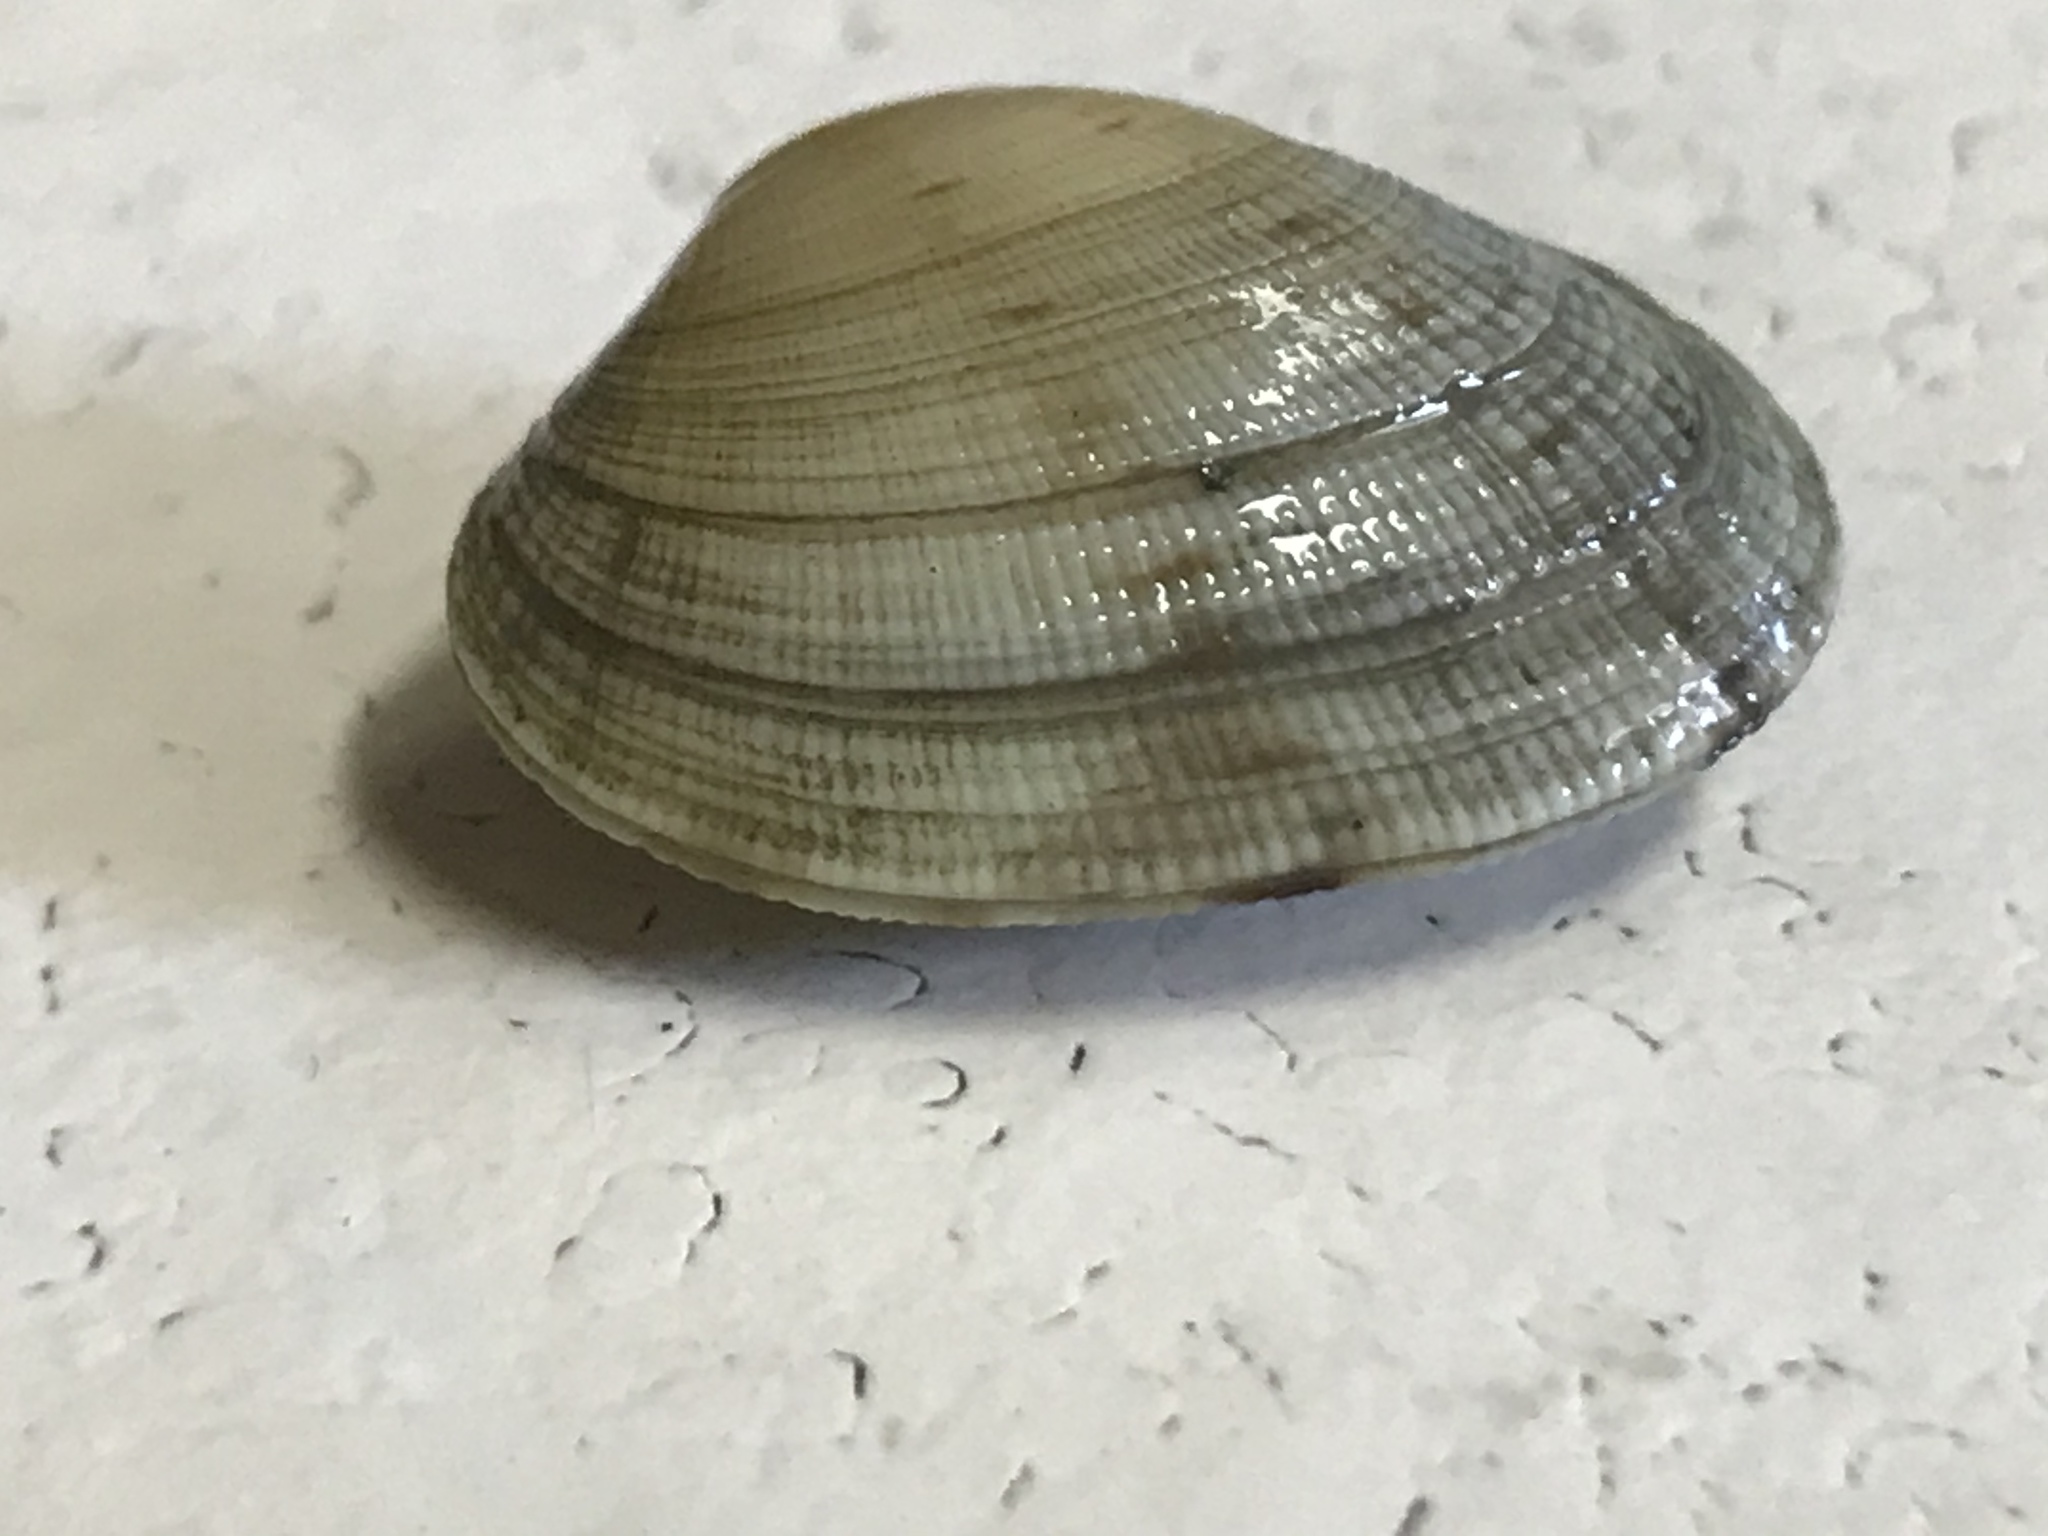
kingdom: Animalia
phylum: Mollusca
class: Bivalvia
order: Venerida
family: Veneridae
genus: Ruditapes
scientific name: Ruditapes philippinarum
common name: Manila clam
